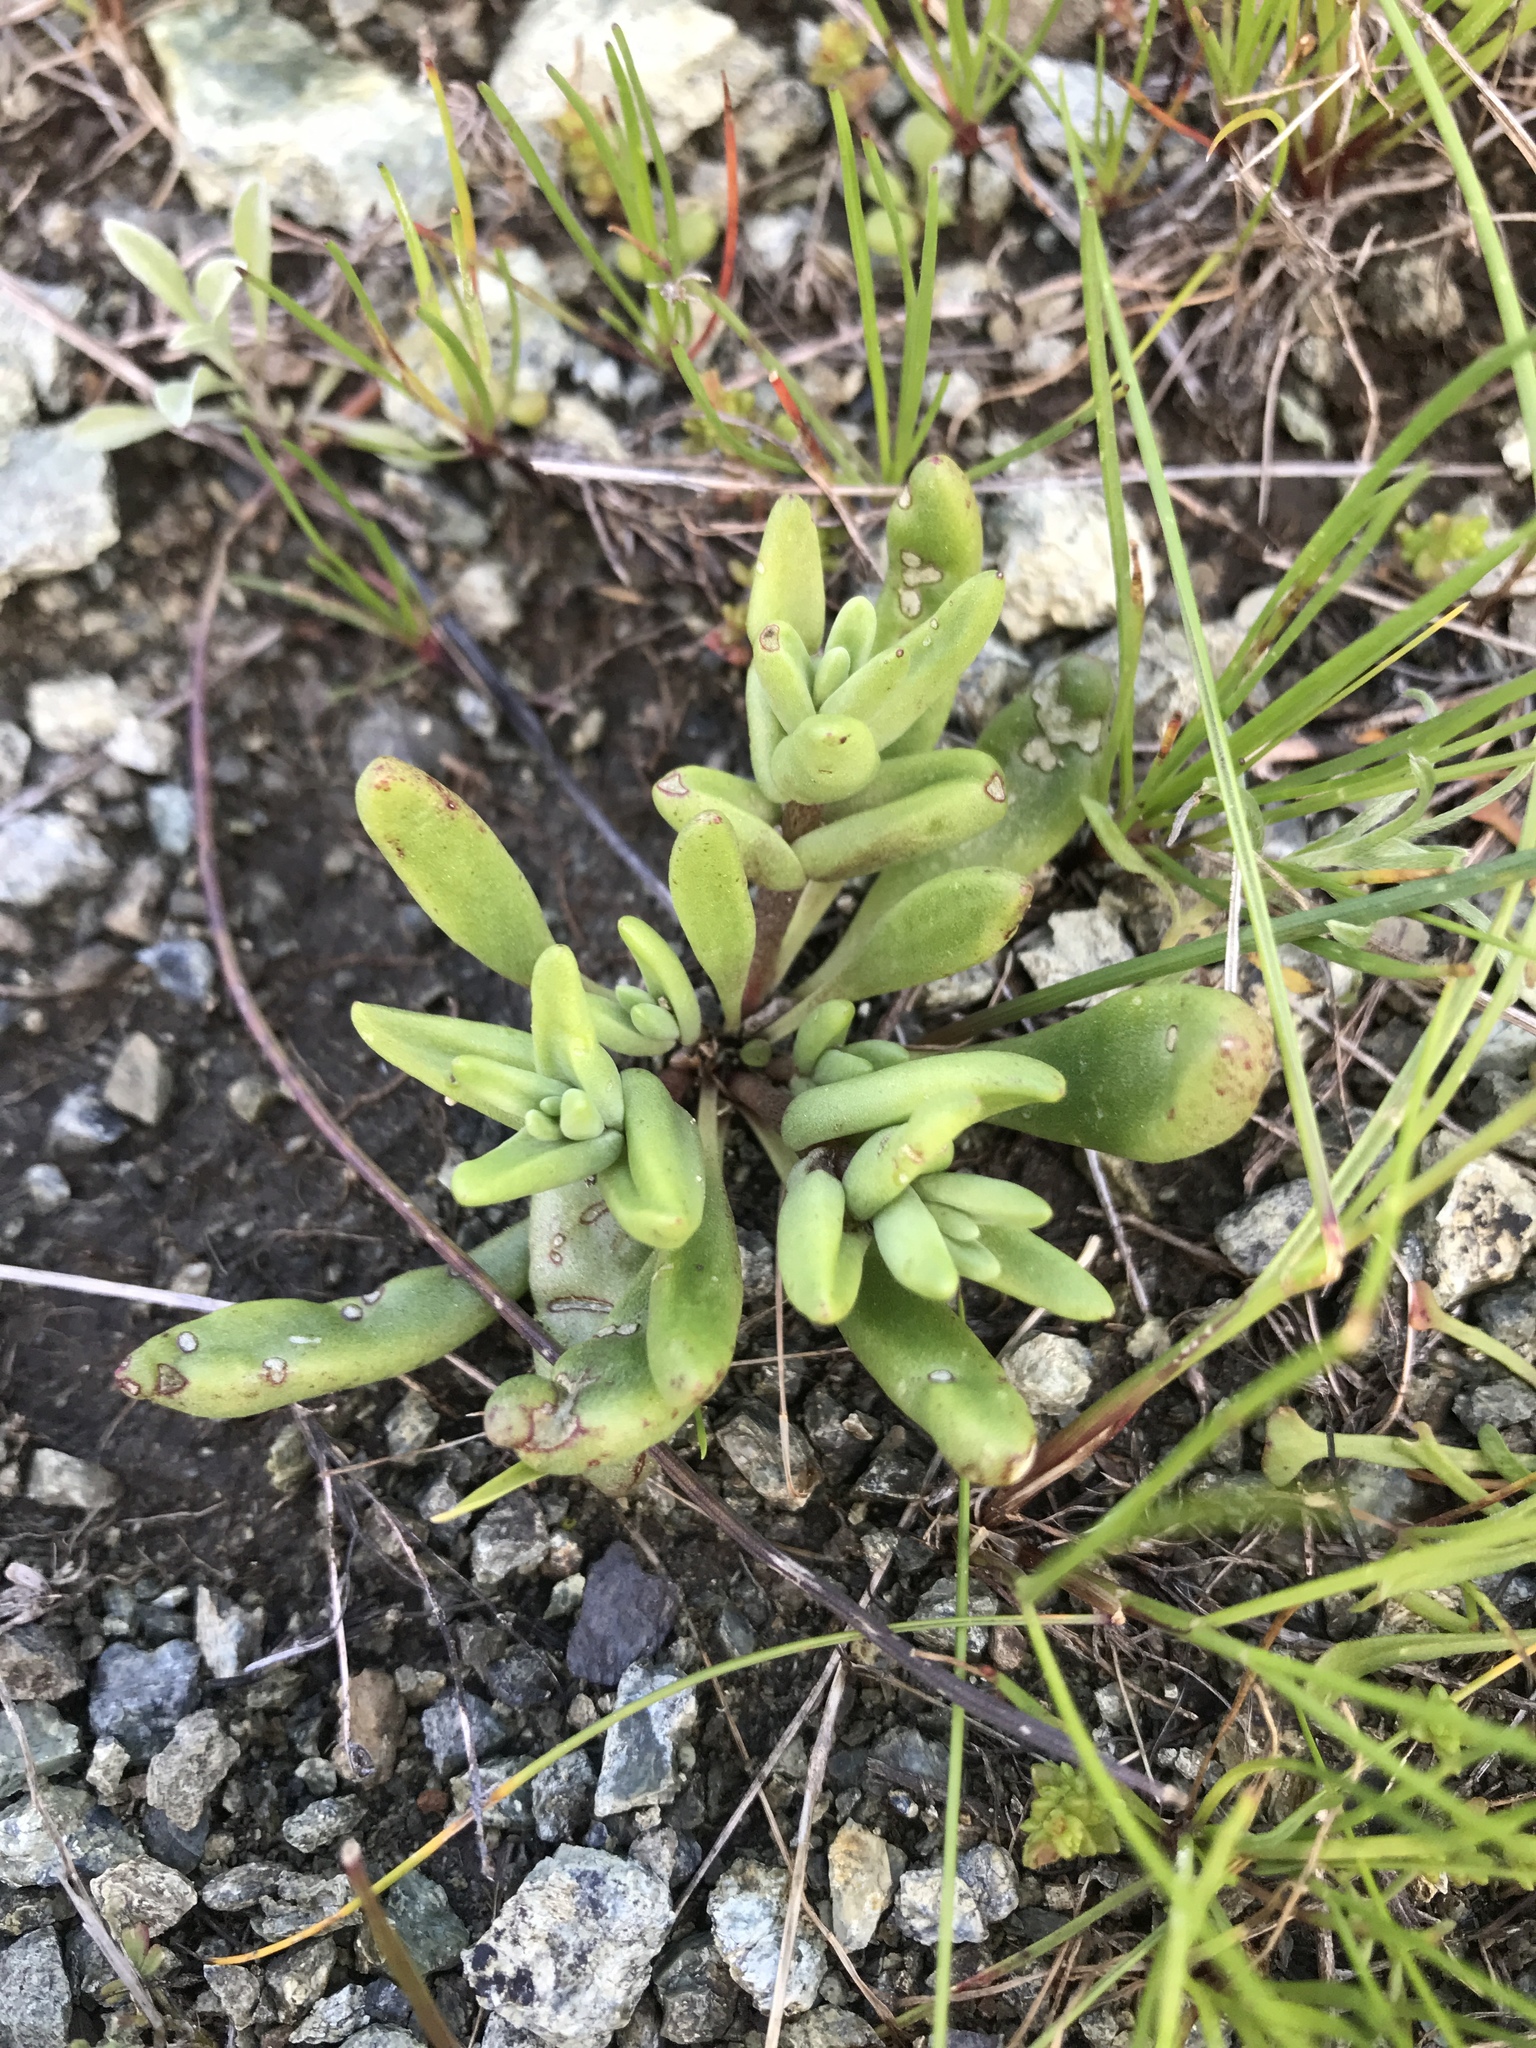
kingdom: Plantae
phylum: Tracheophyta
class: Magnoliopsida
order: Saxifragales
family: Crassulaceae
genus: Dudleya
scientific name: Dudleya blochmaniae
